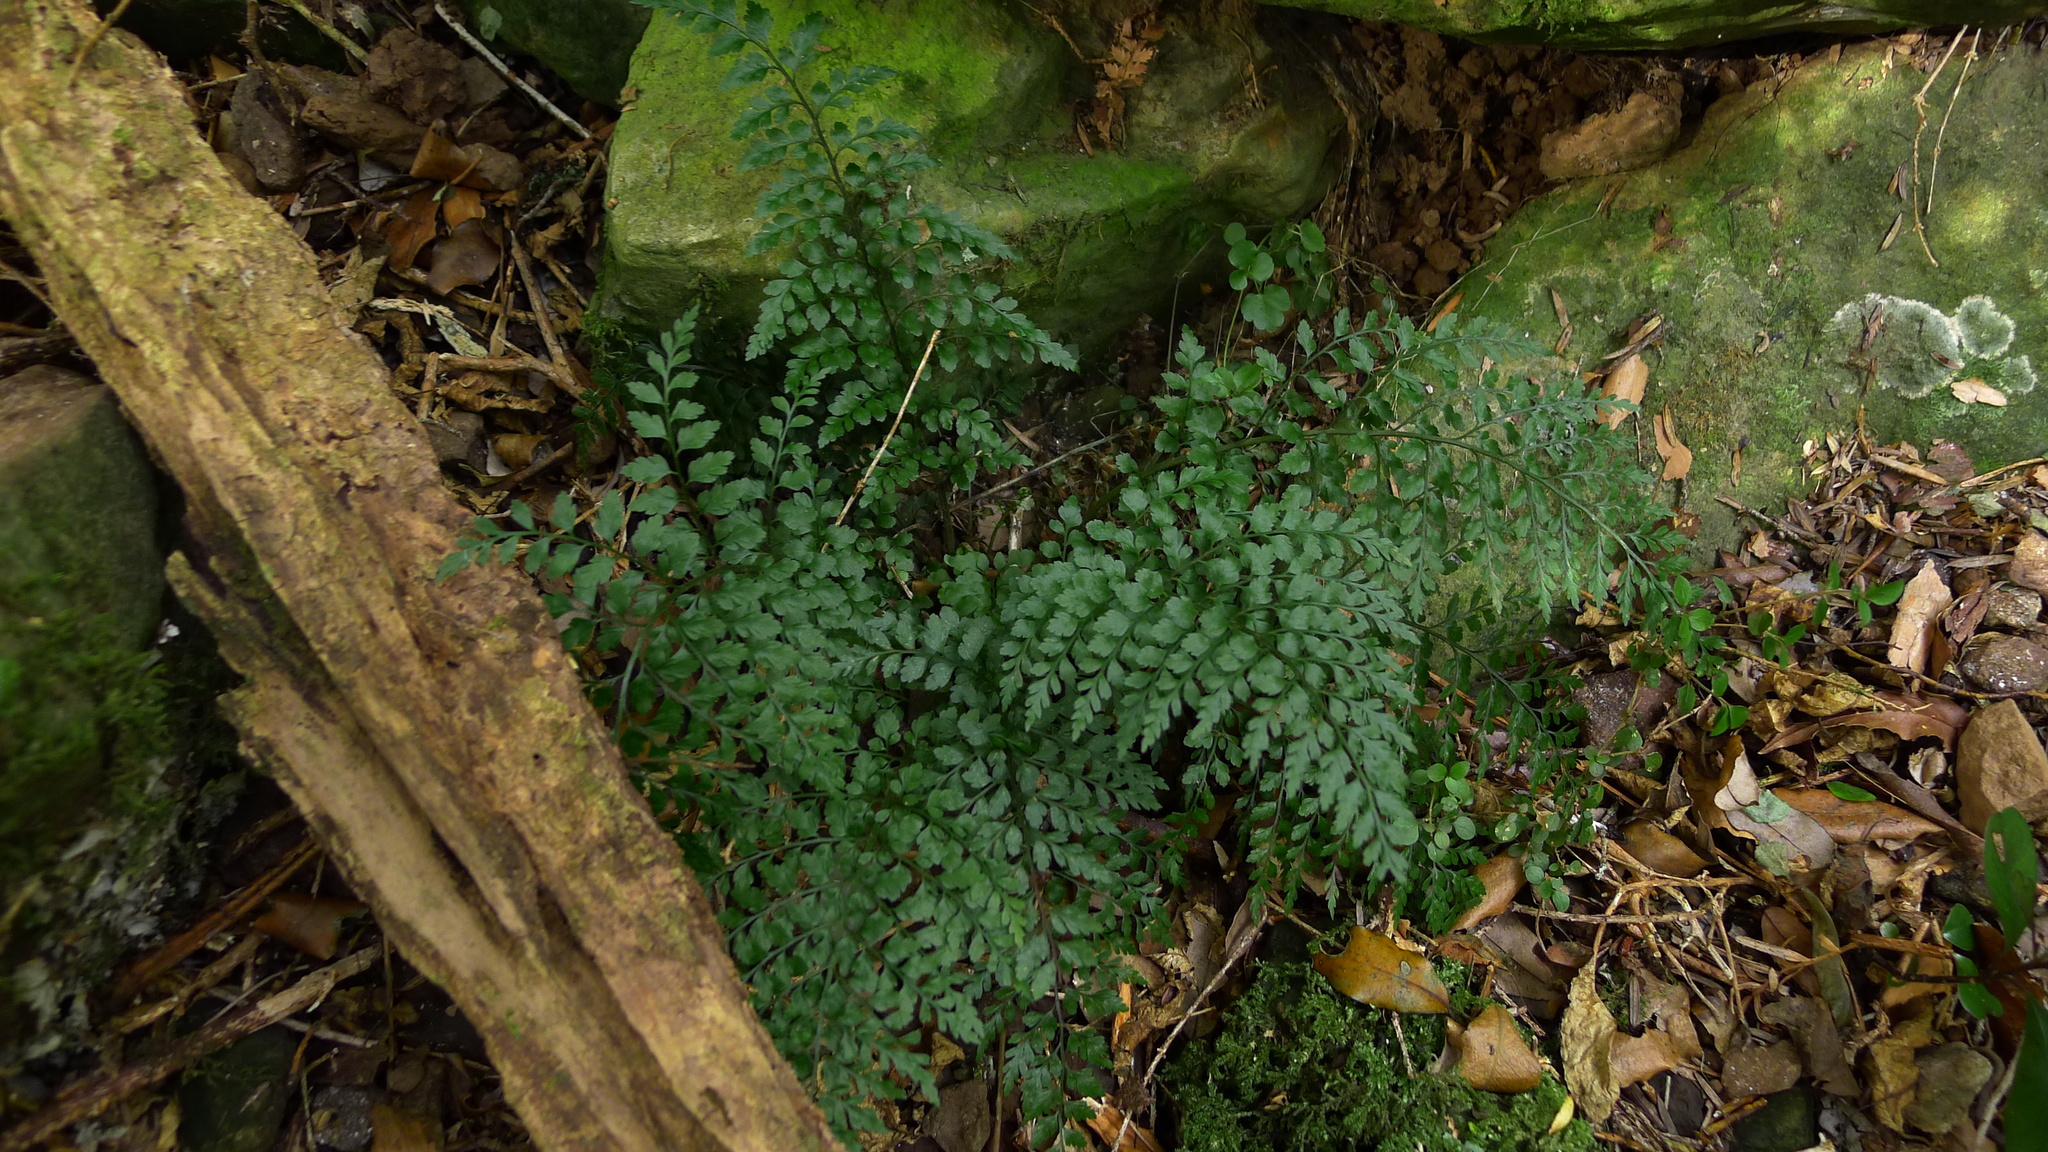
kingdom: Plantae
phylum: Tracheophyta
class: Polypodiopsida
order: Polypodiales
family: Aspleniaceae
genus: Asplenium
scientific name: Asplenium hookerianum
